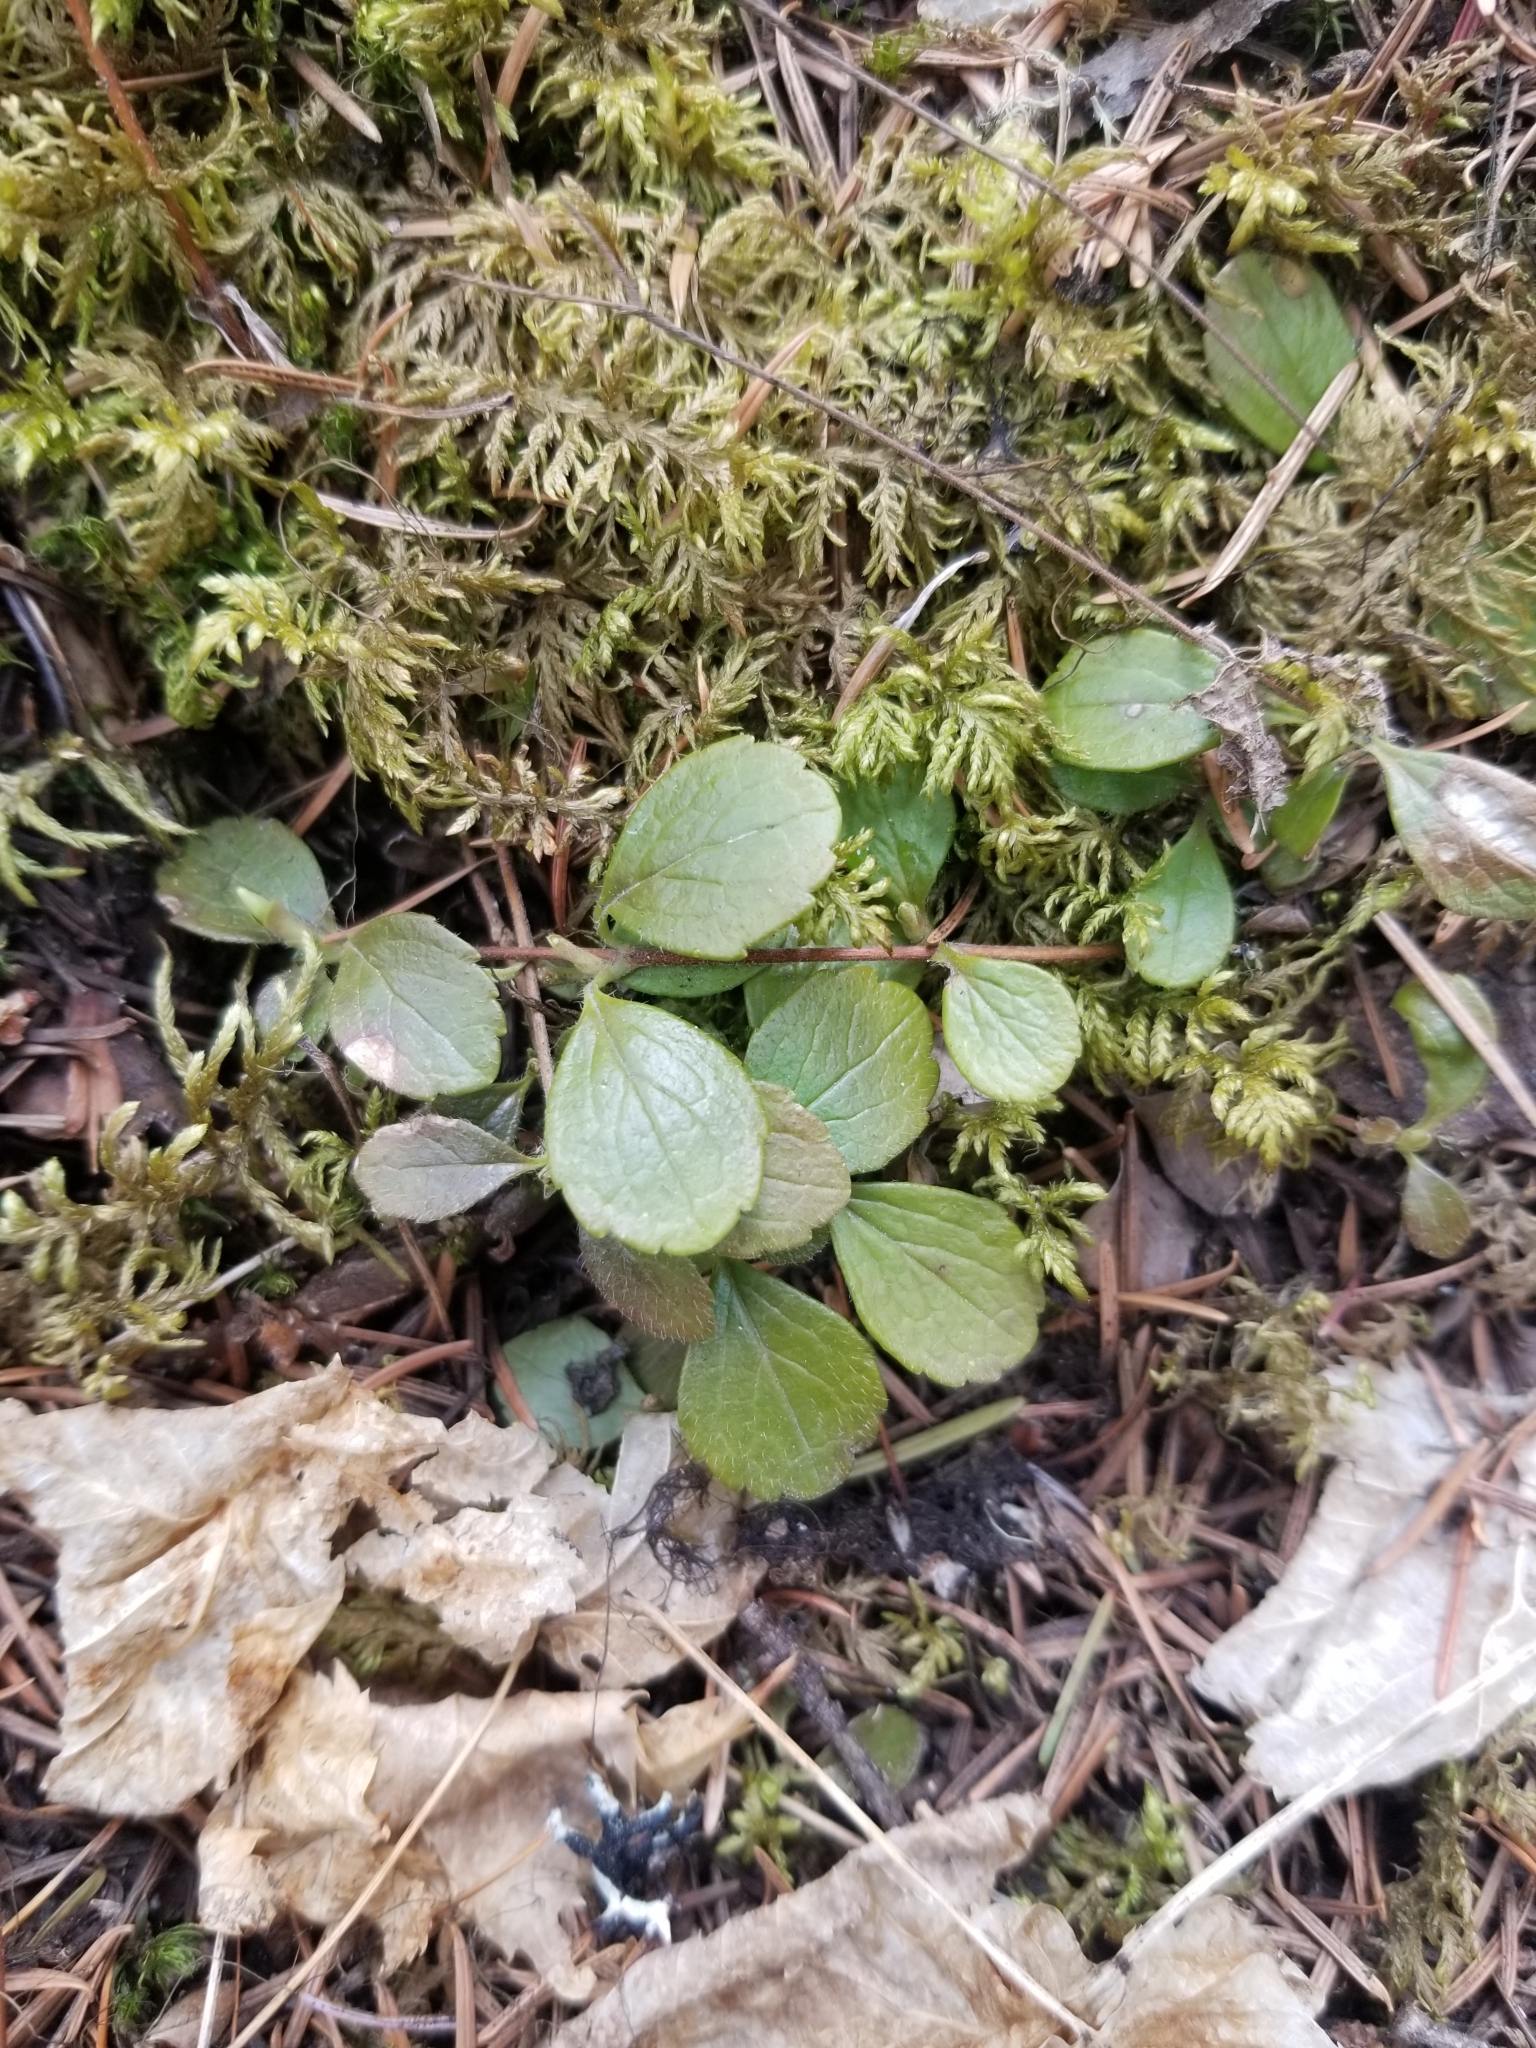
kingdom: Plantae
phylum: Tracheophyta
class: Magnoliopsida
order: Dipsacales
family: Caprifoliaceae
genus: Linnaea
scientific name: Linnaea borealis
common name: Twinflower
